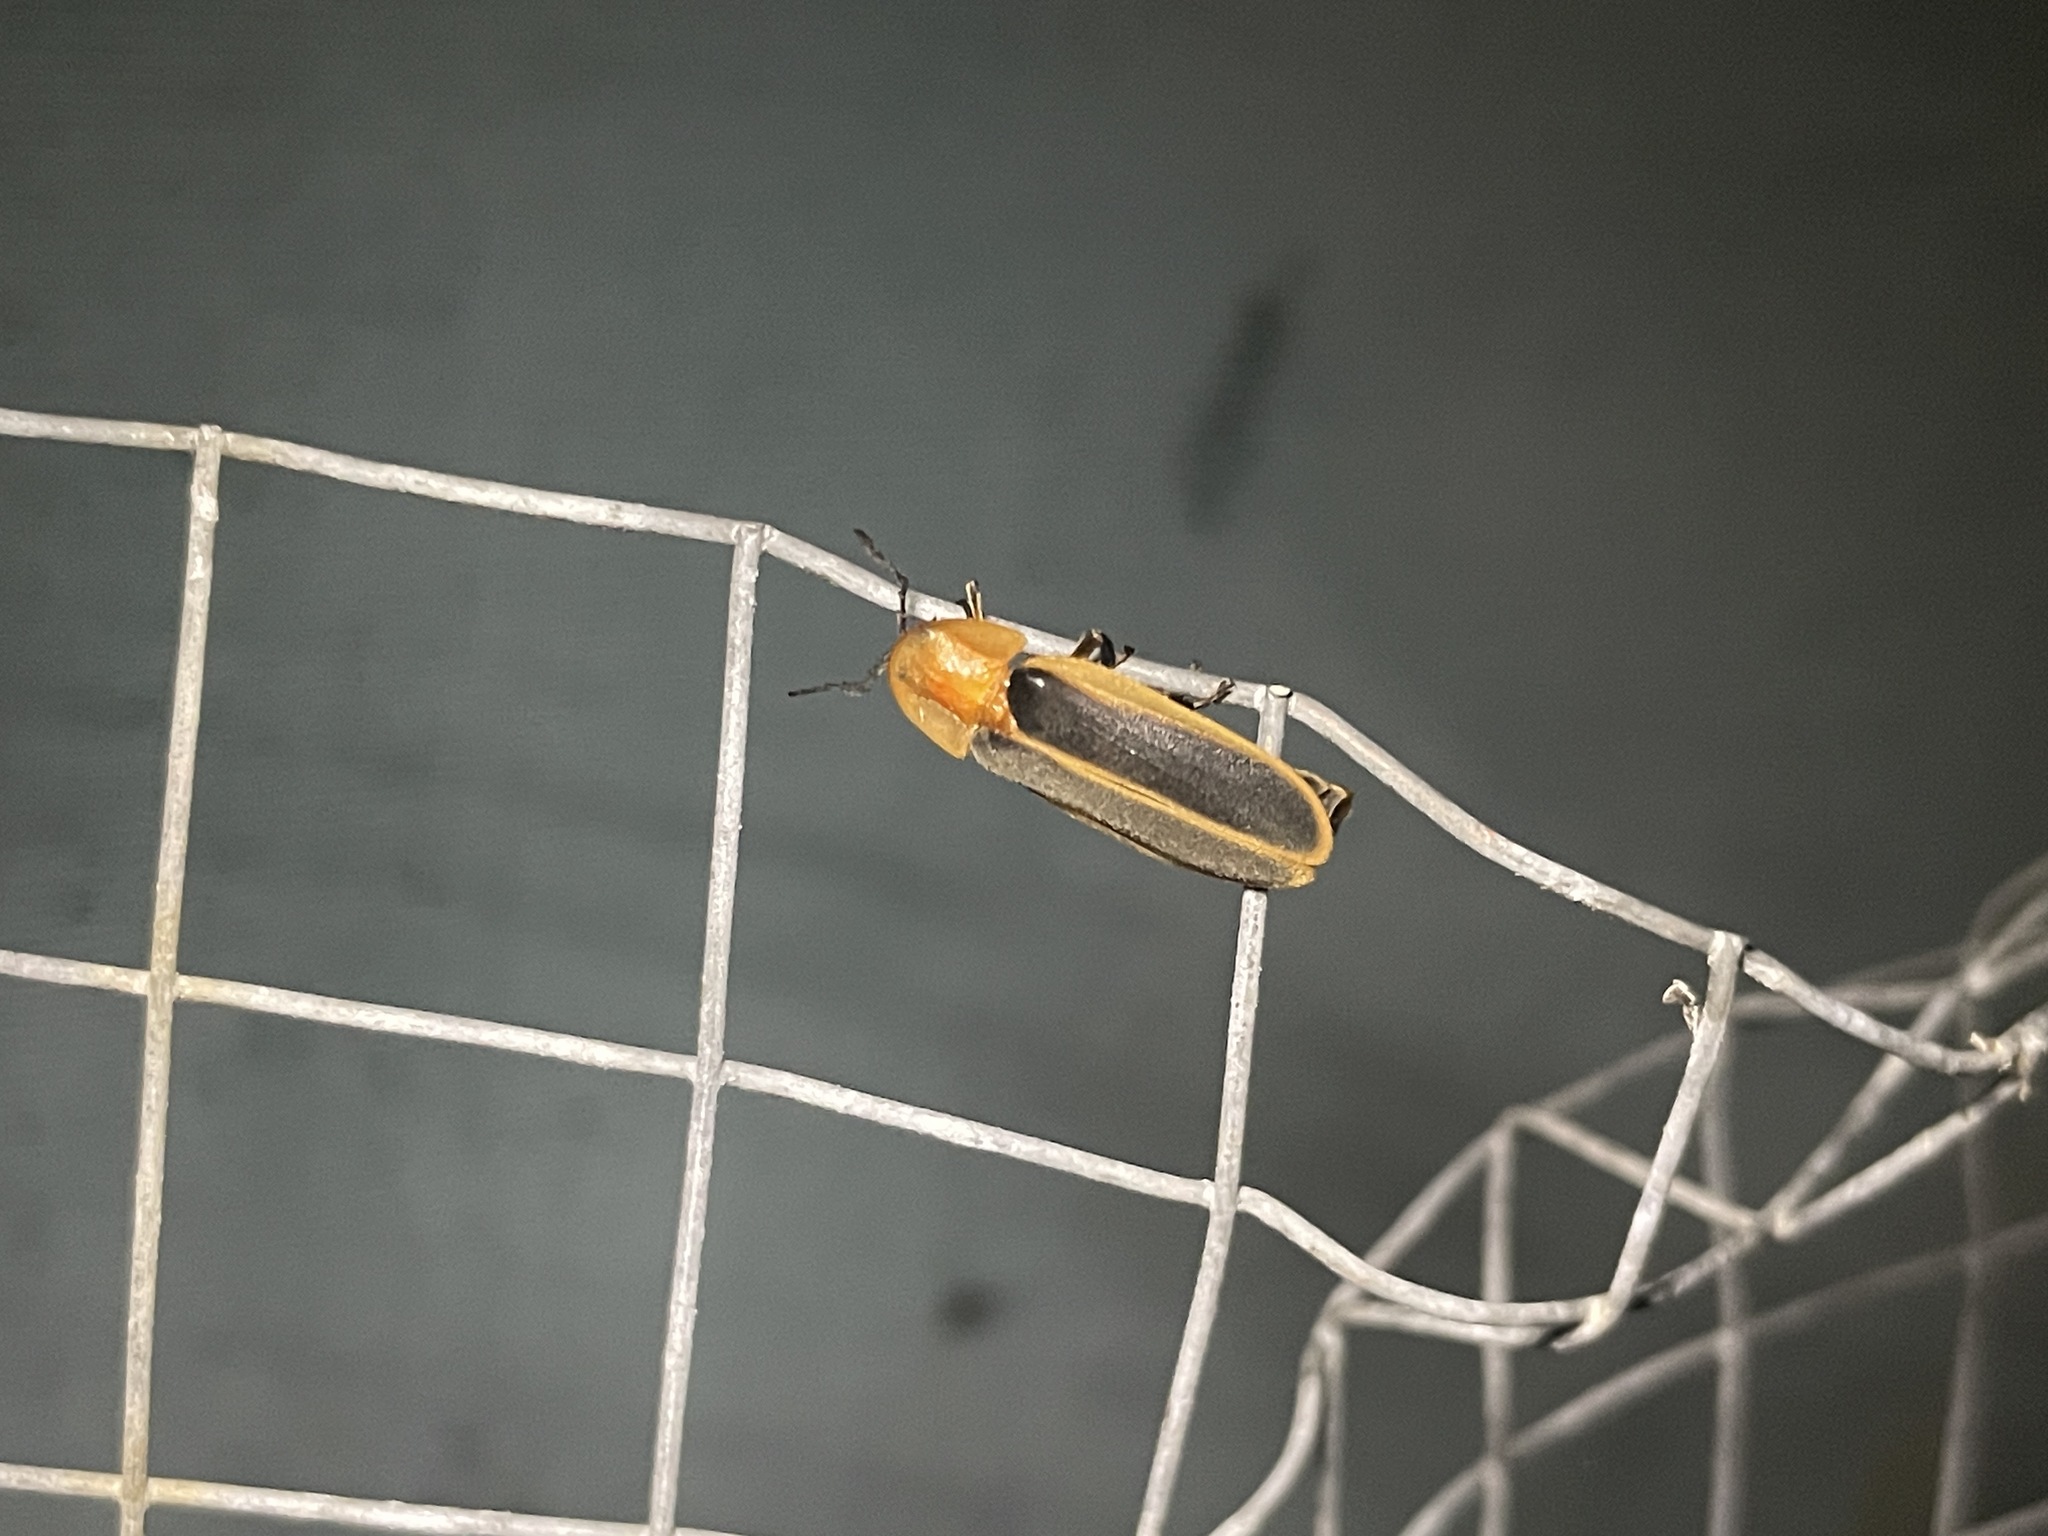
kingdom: Animalia
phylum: Arthropoda
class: Insecta
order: Coleoptera
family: Lampyridae
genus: Pyrocoelia
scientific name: Pyrocoelia analis
